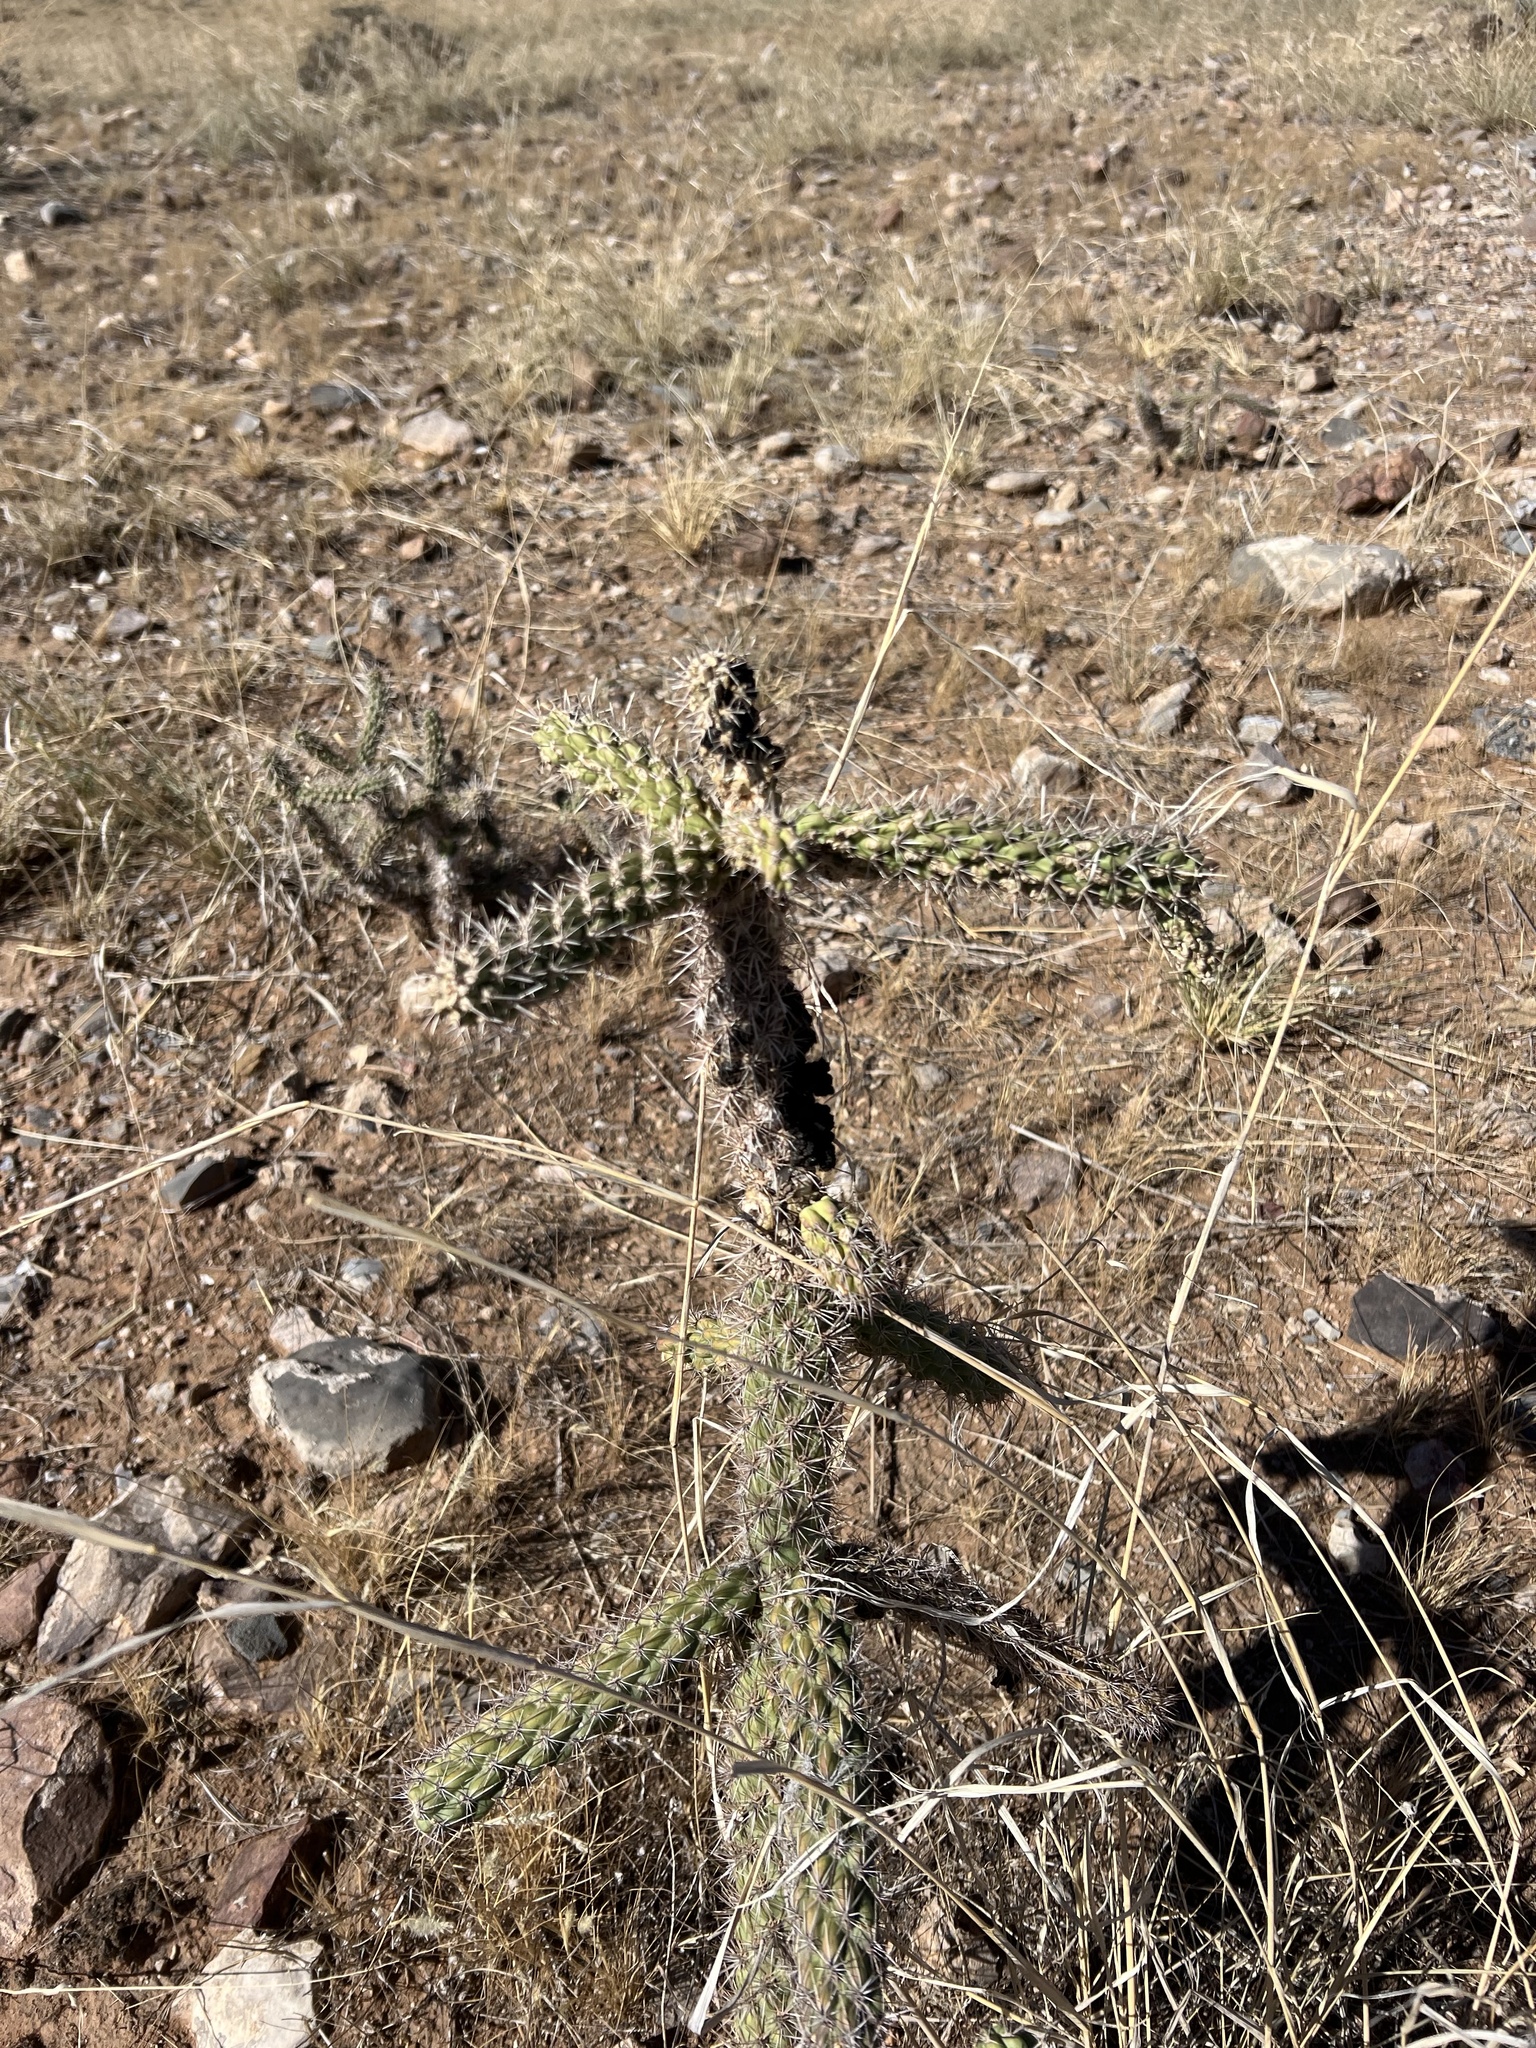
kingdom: Plantae
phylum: Tracheophyta
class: Magnoliopsida
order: Caryophyllales
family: Cactaceae
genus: Cylindropuntia
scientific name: Cylindropuntia imbricata
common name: Candelabrum cactus
